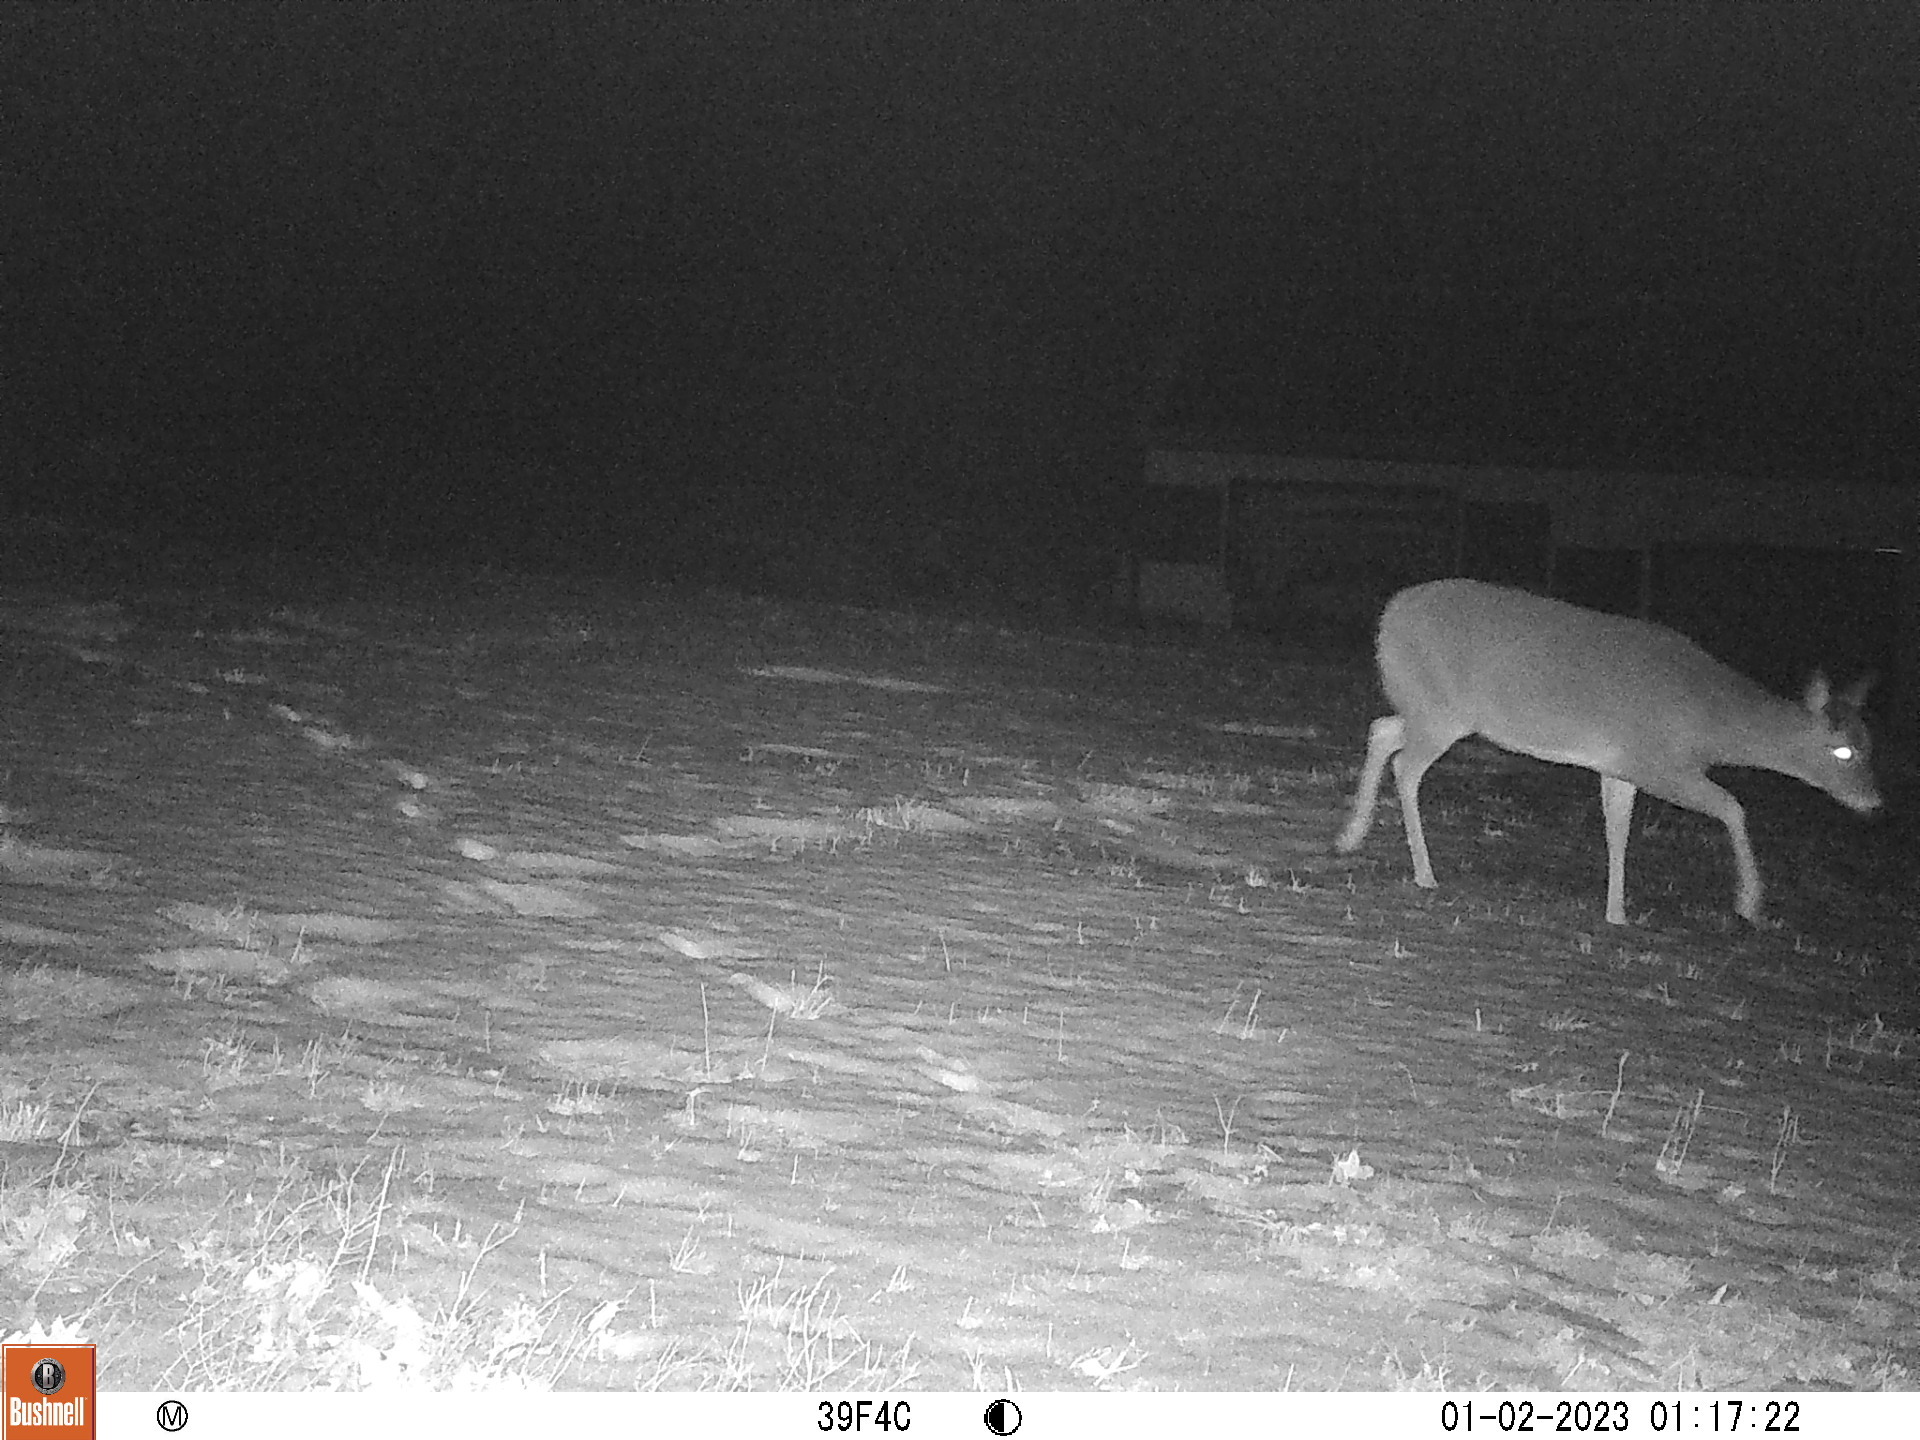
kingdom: Animalia
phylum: Chordata
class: Mammalia
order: Artiodactyla
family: Cervidae
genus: Odocoileus
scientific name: Odocoileus virginianus
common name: White-tailed deer
